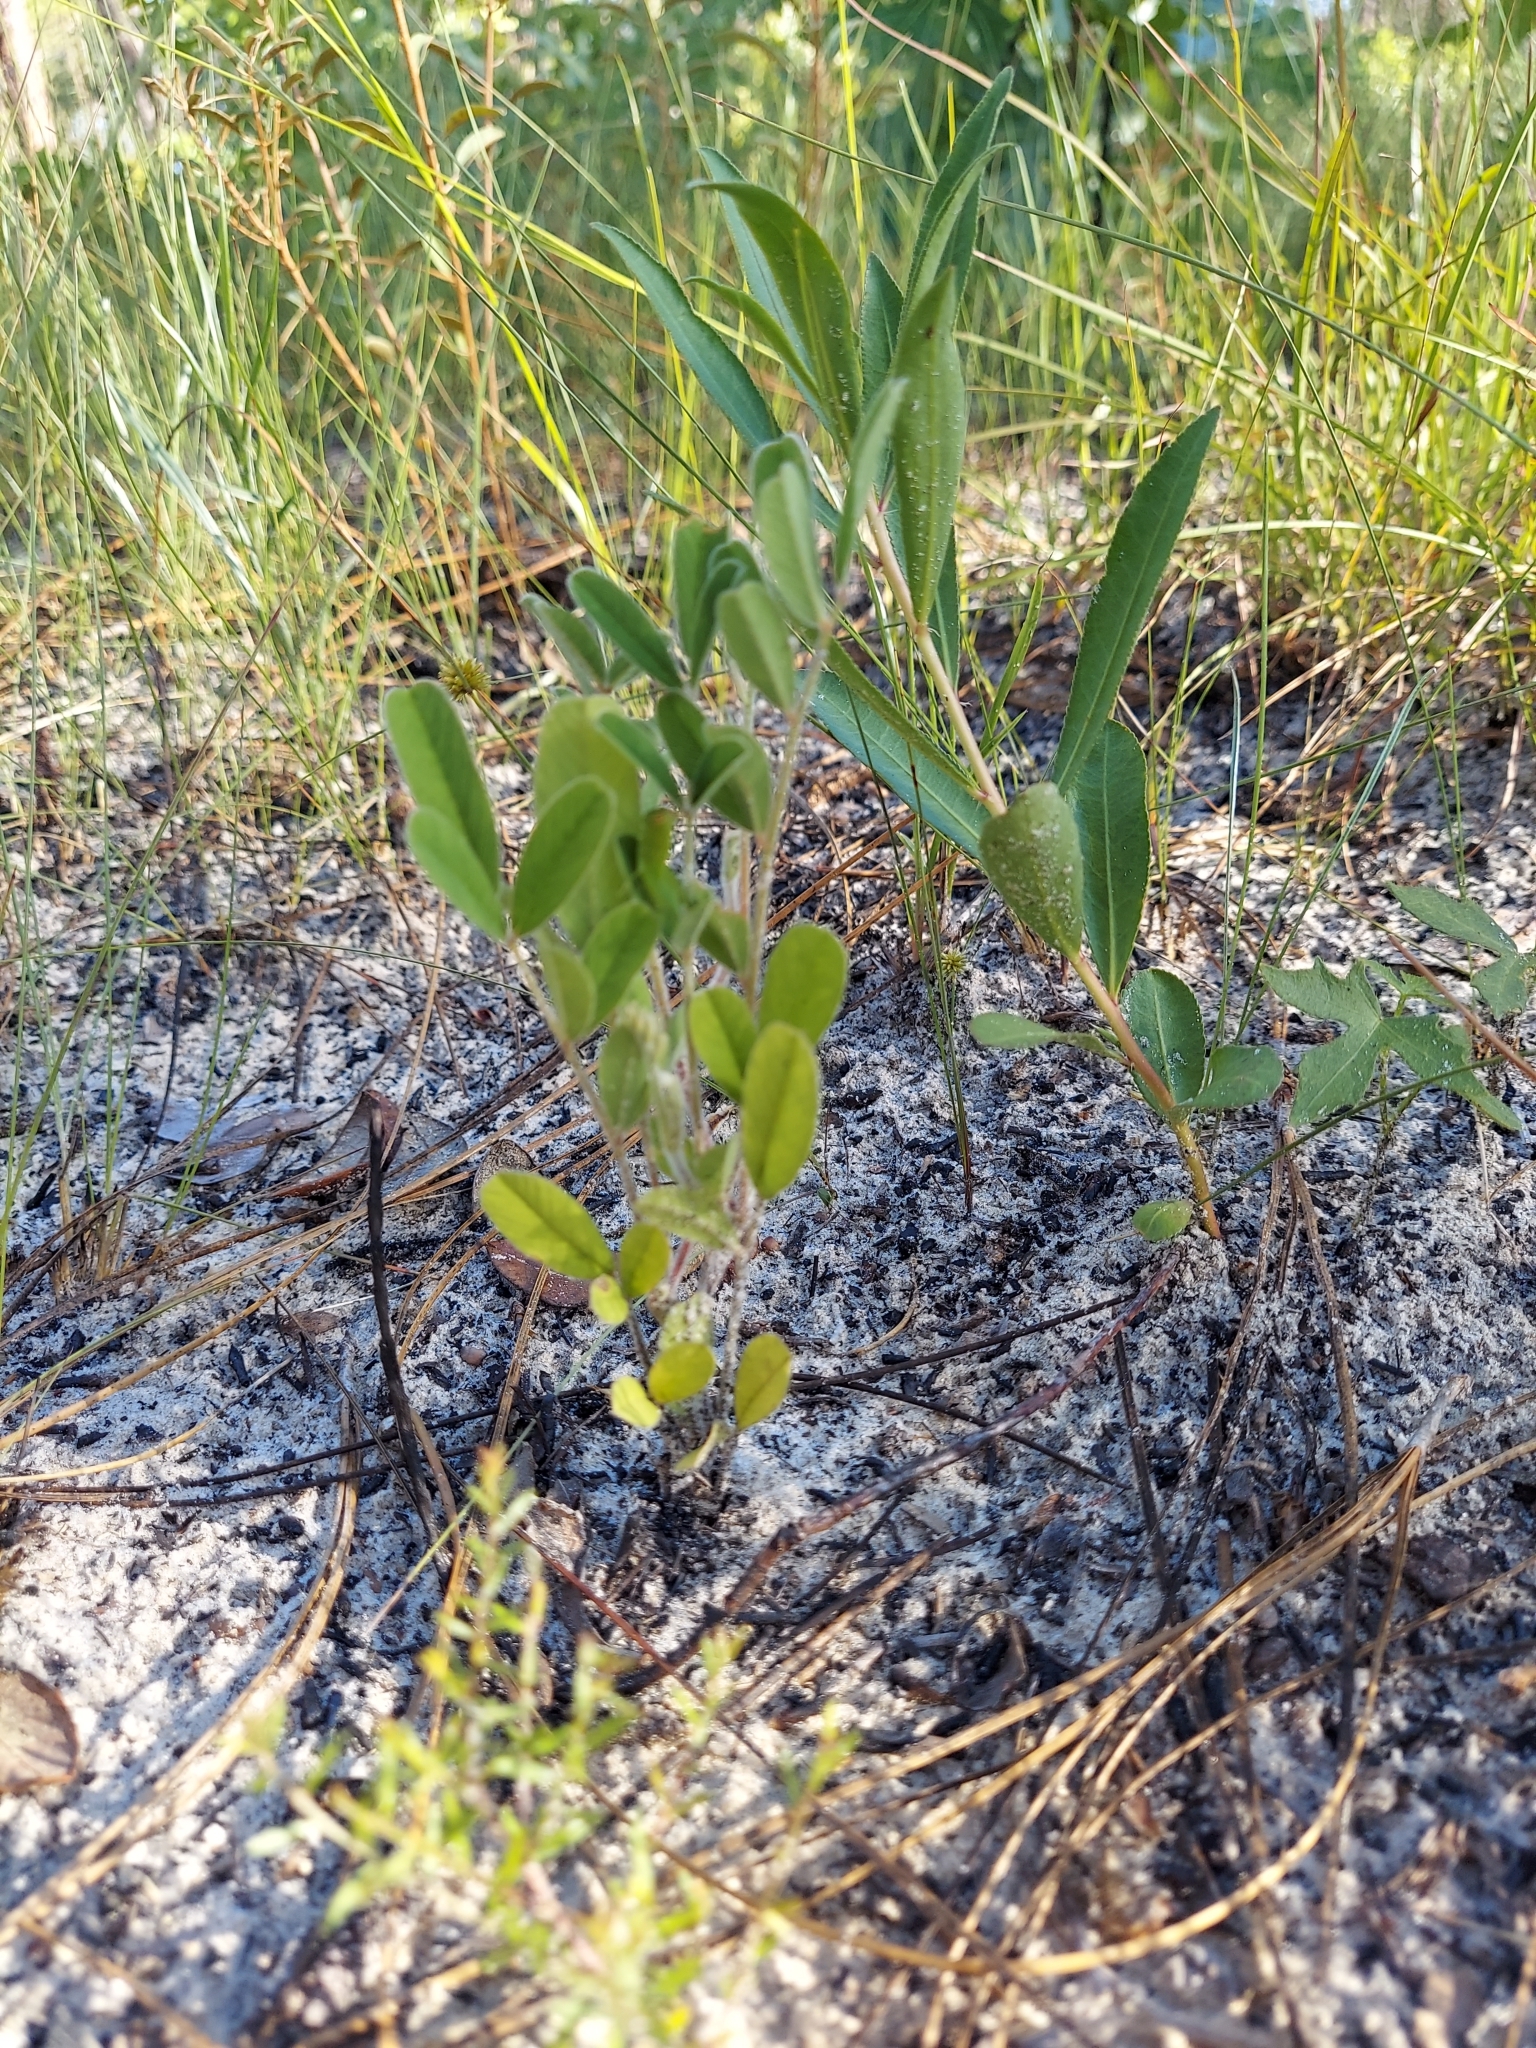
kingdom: Plantae
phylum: Tracheophyta
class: Magnoliopsida
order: Fabales
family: Fabaceae
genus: Tephrosia
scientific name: Tephrosia
